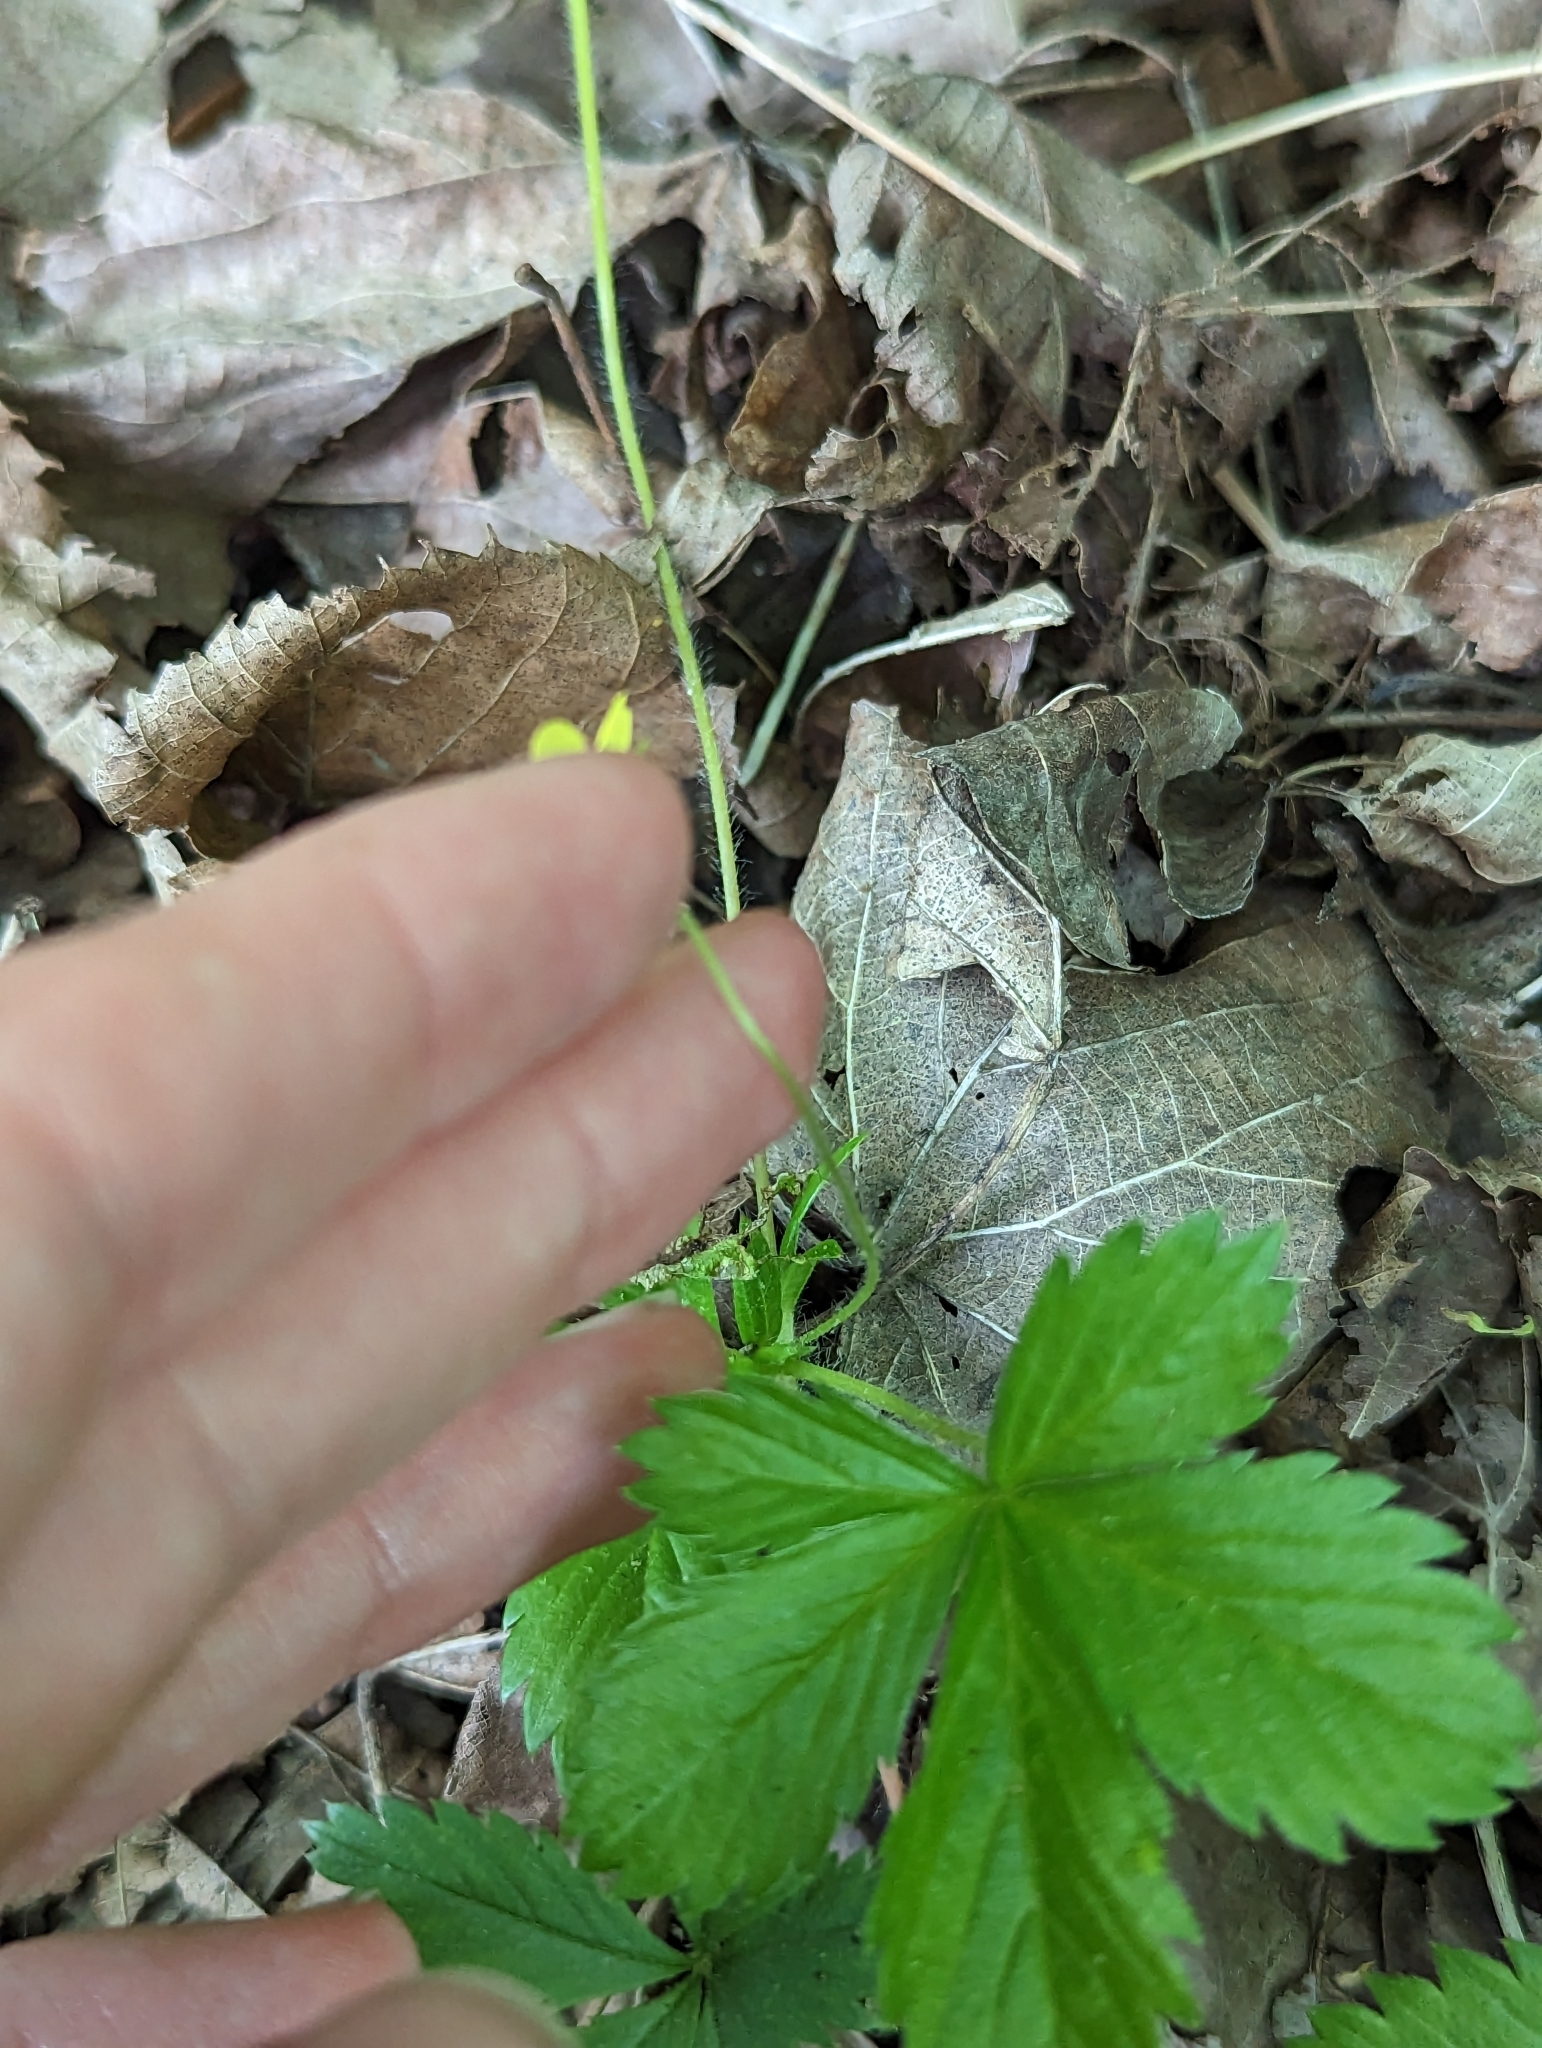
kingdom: Plantae
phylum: Tracheophyta
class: Magnoliopsida
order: Rosales
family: Rosaceae
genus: Potentilla
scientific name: Potentilla simplex
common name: Old field cinquefoil
